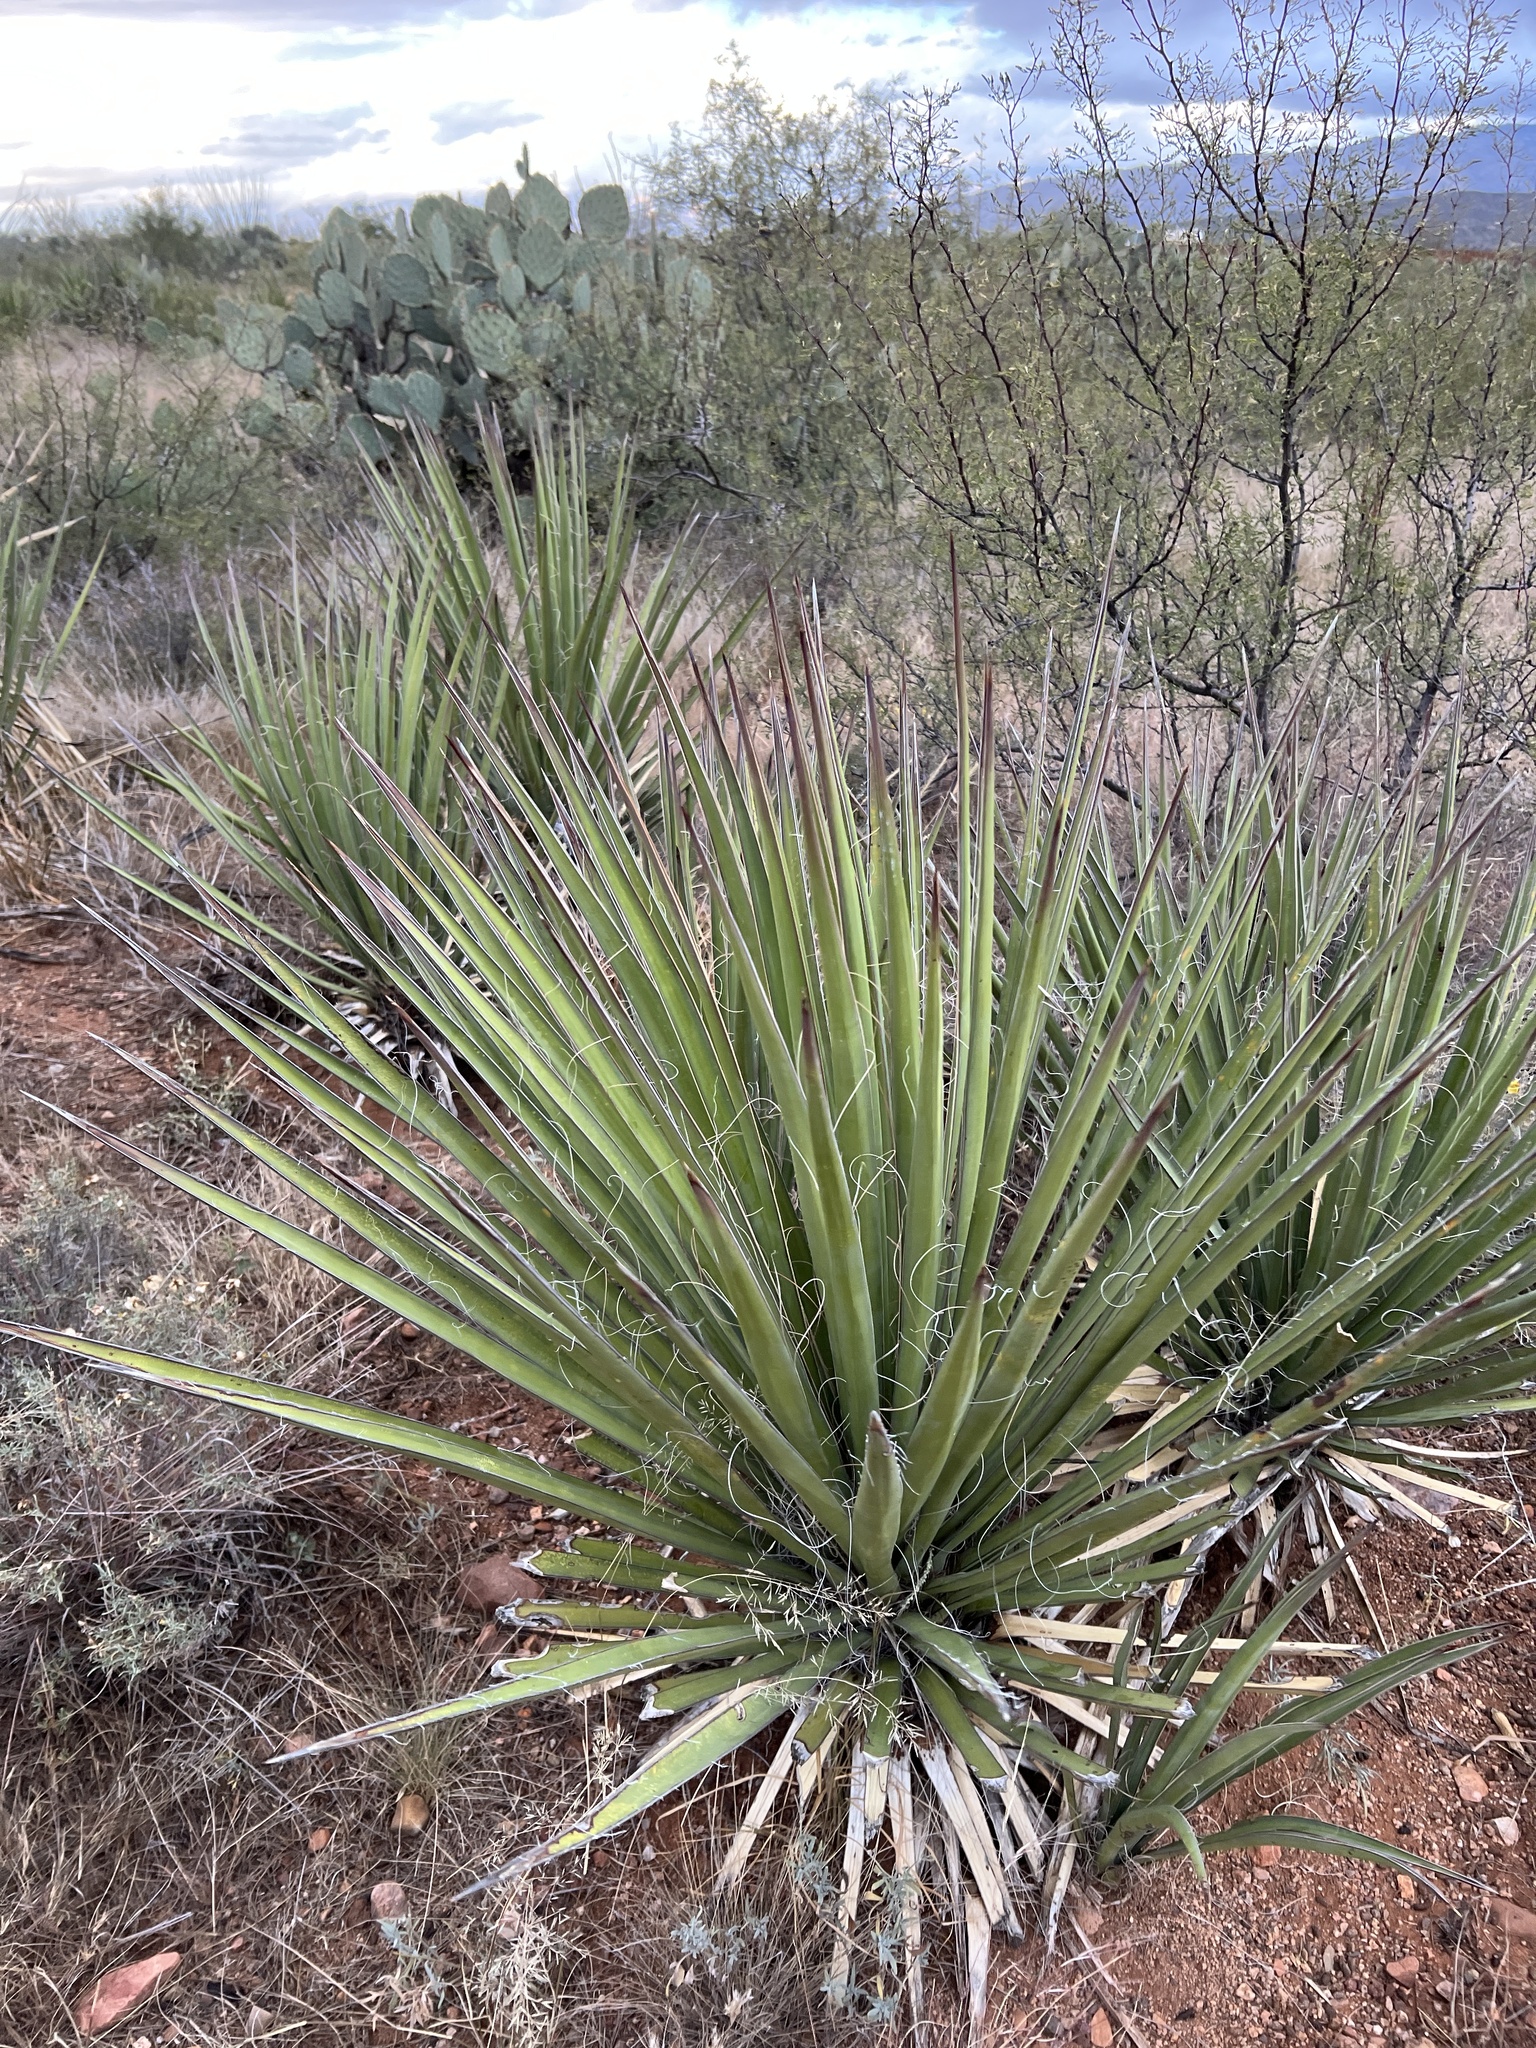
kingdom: Plantae
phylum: Tracheophyta
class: Liliopsida
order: Asparagales
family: Asparagaceae
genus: Yucca
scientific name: Yucca baccata
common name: Banana yucca
